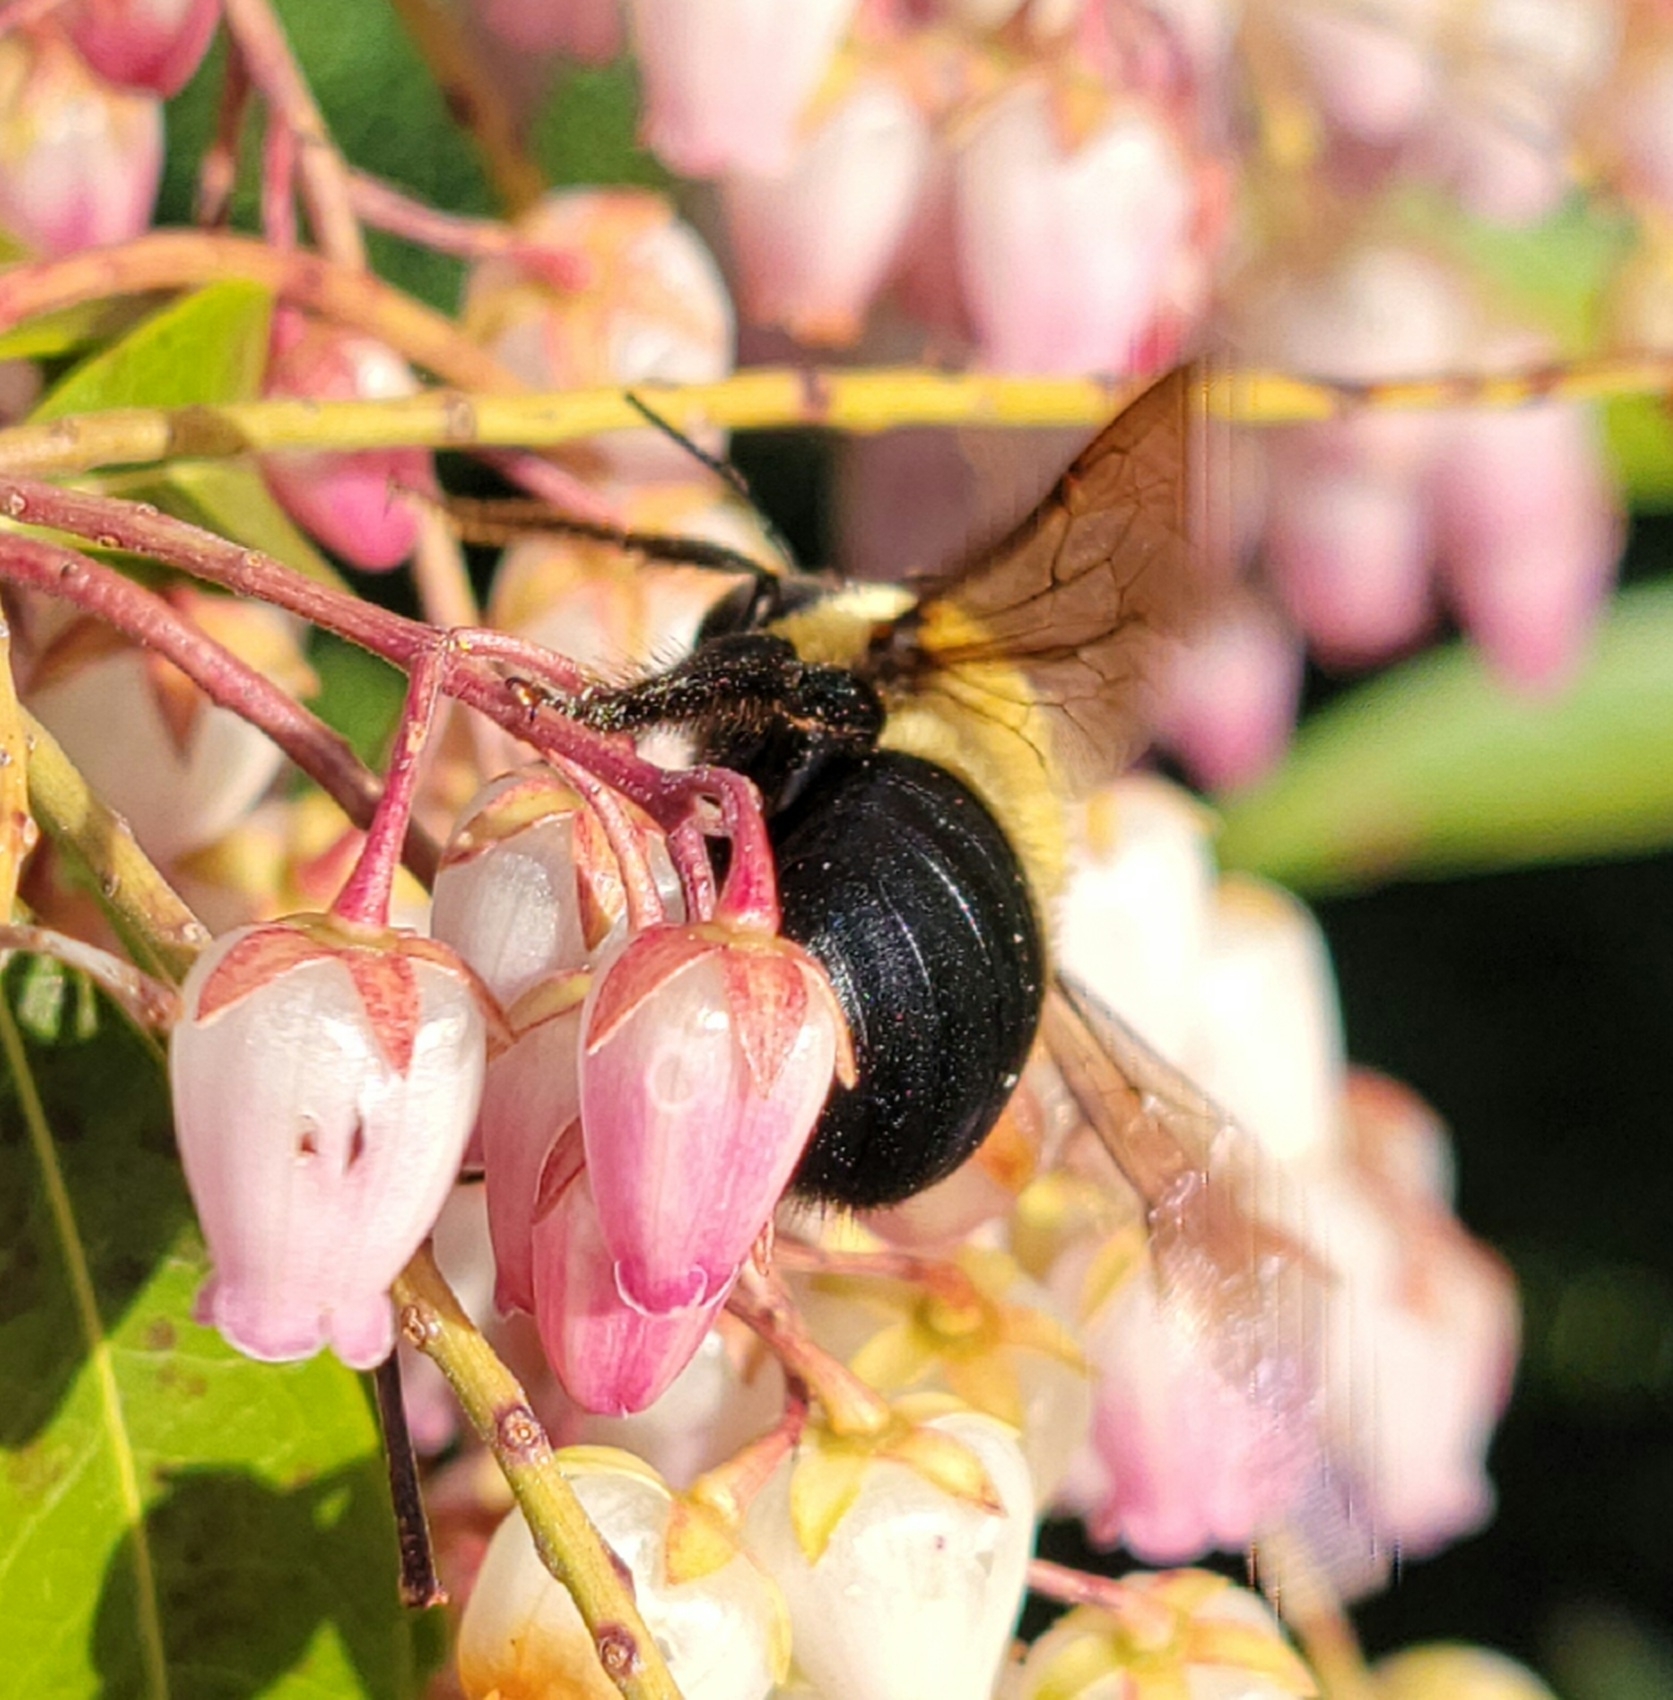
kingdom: Animalia
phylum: Arthropoda
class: Insecta
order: Hymenoptera
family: Apidae
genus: Xylocopa
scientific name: Xylocopa virginica
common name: Carpenter bee
